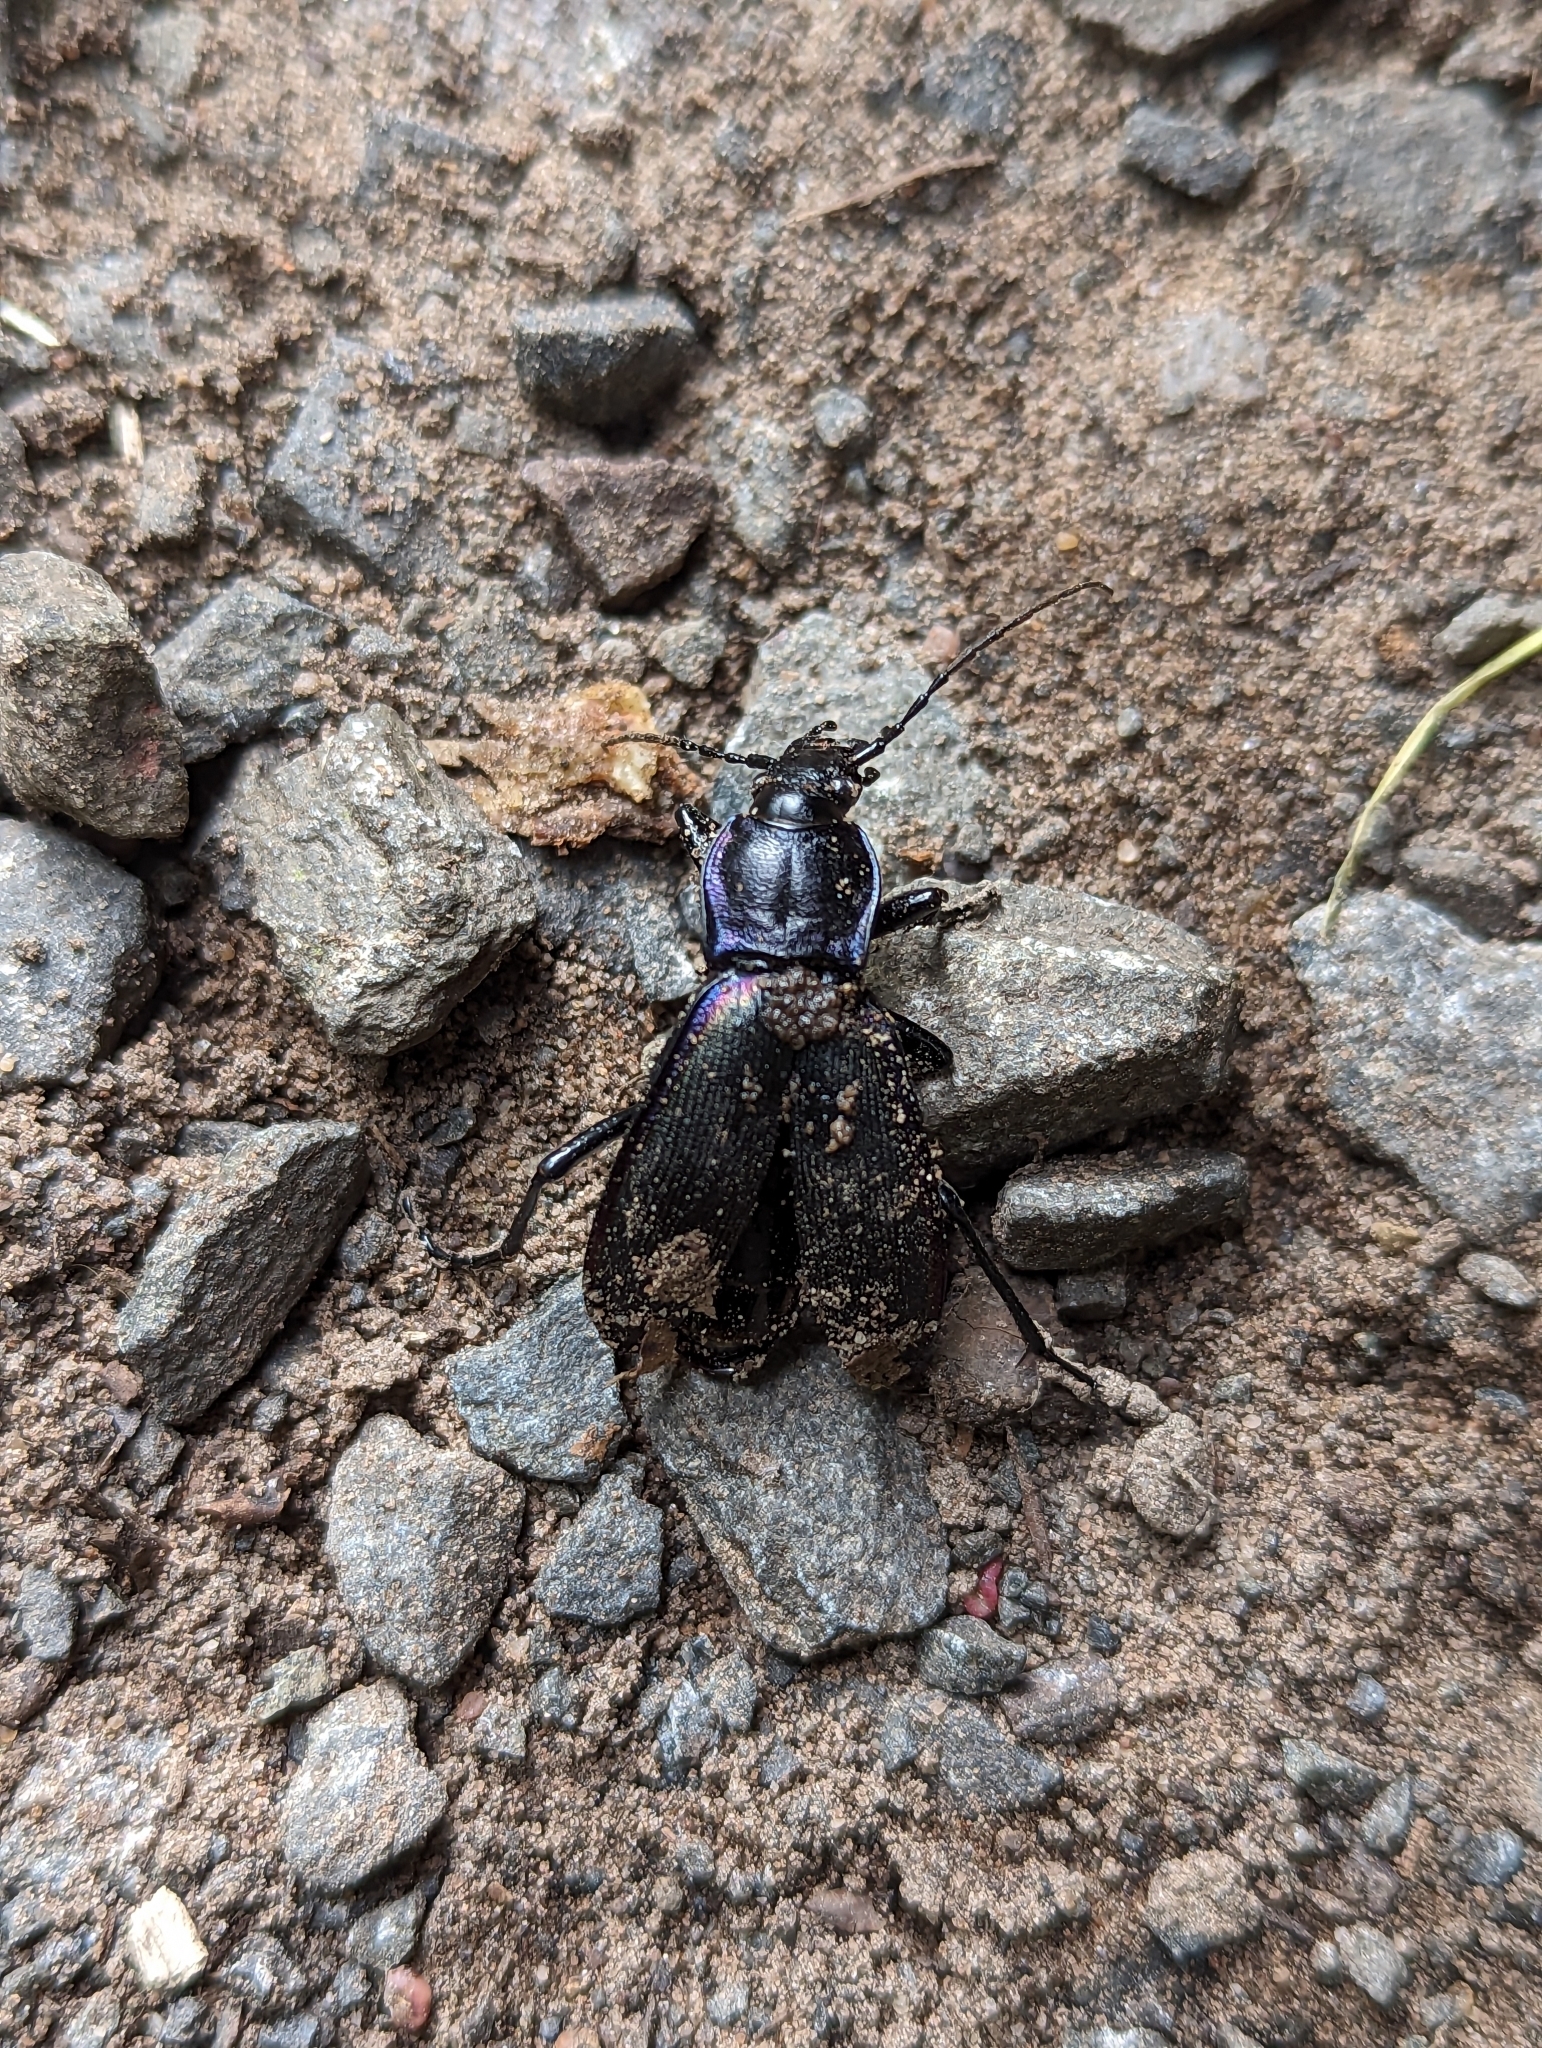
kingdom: Animalia
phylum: Arthropoda
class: Insecta
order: Coleoptera
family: Carabidae
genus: Carabus
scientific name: Carabus purpurascens
